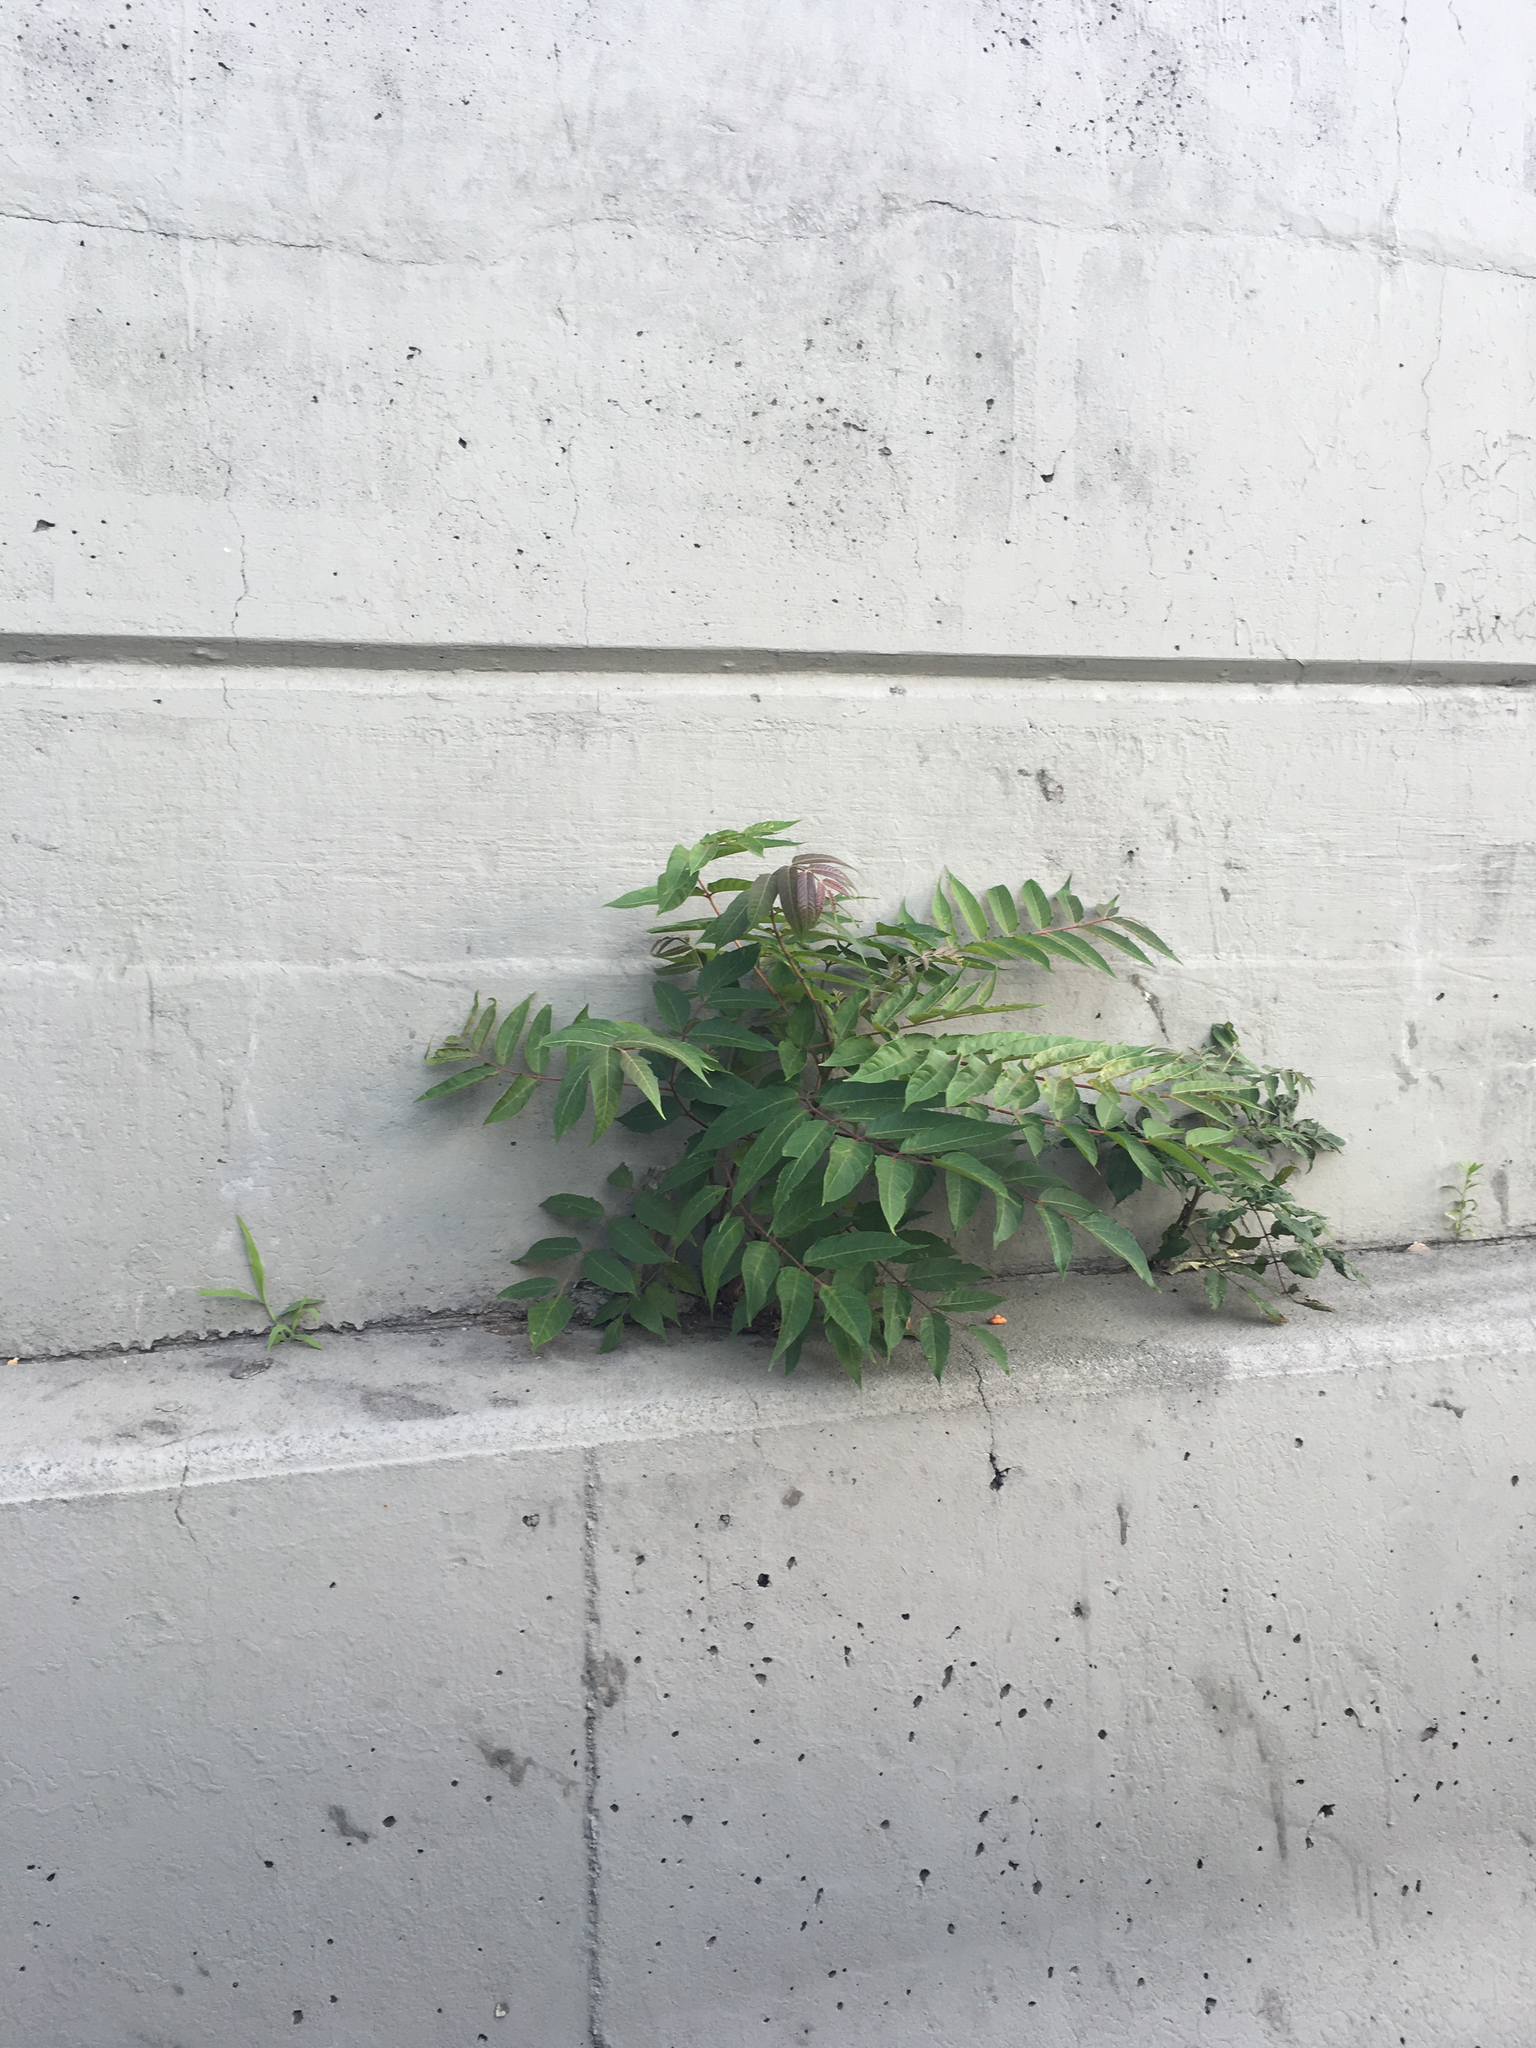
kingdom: Plantae
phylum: Tracheophyta
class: Magnoliopsida
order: Sapindales
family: Simaroubaceae
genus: Ailanthus
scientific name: Ailanthus altissima
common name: Tree-of-heaven
